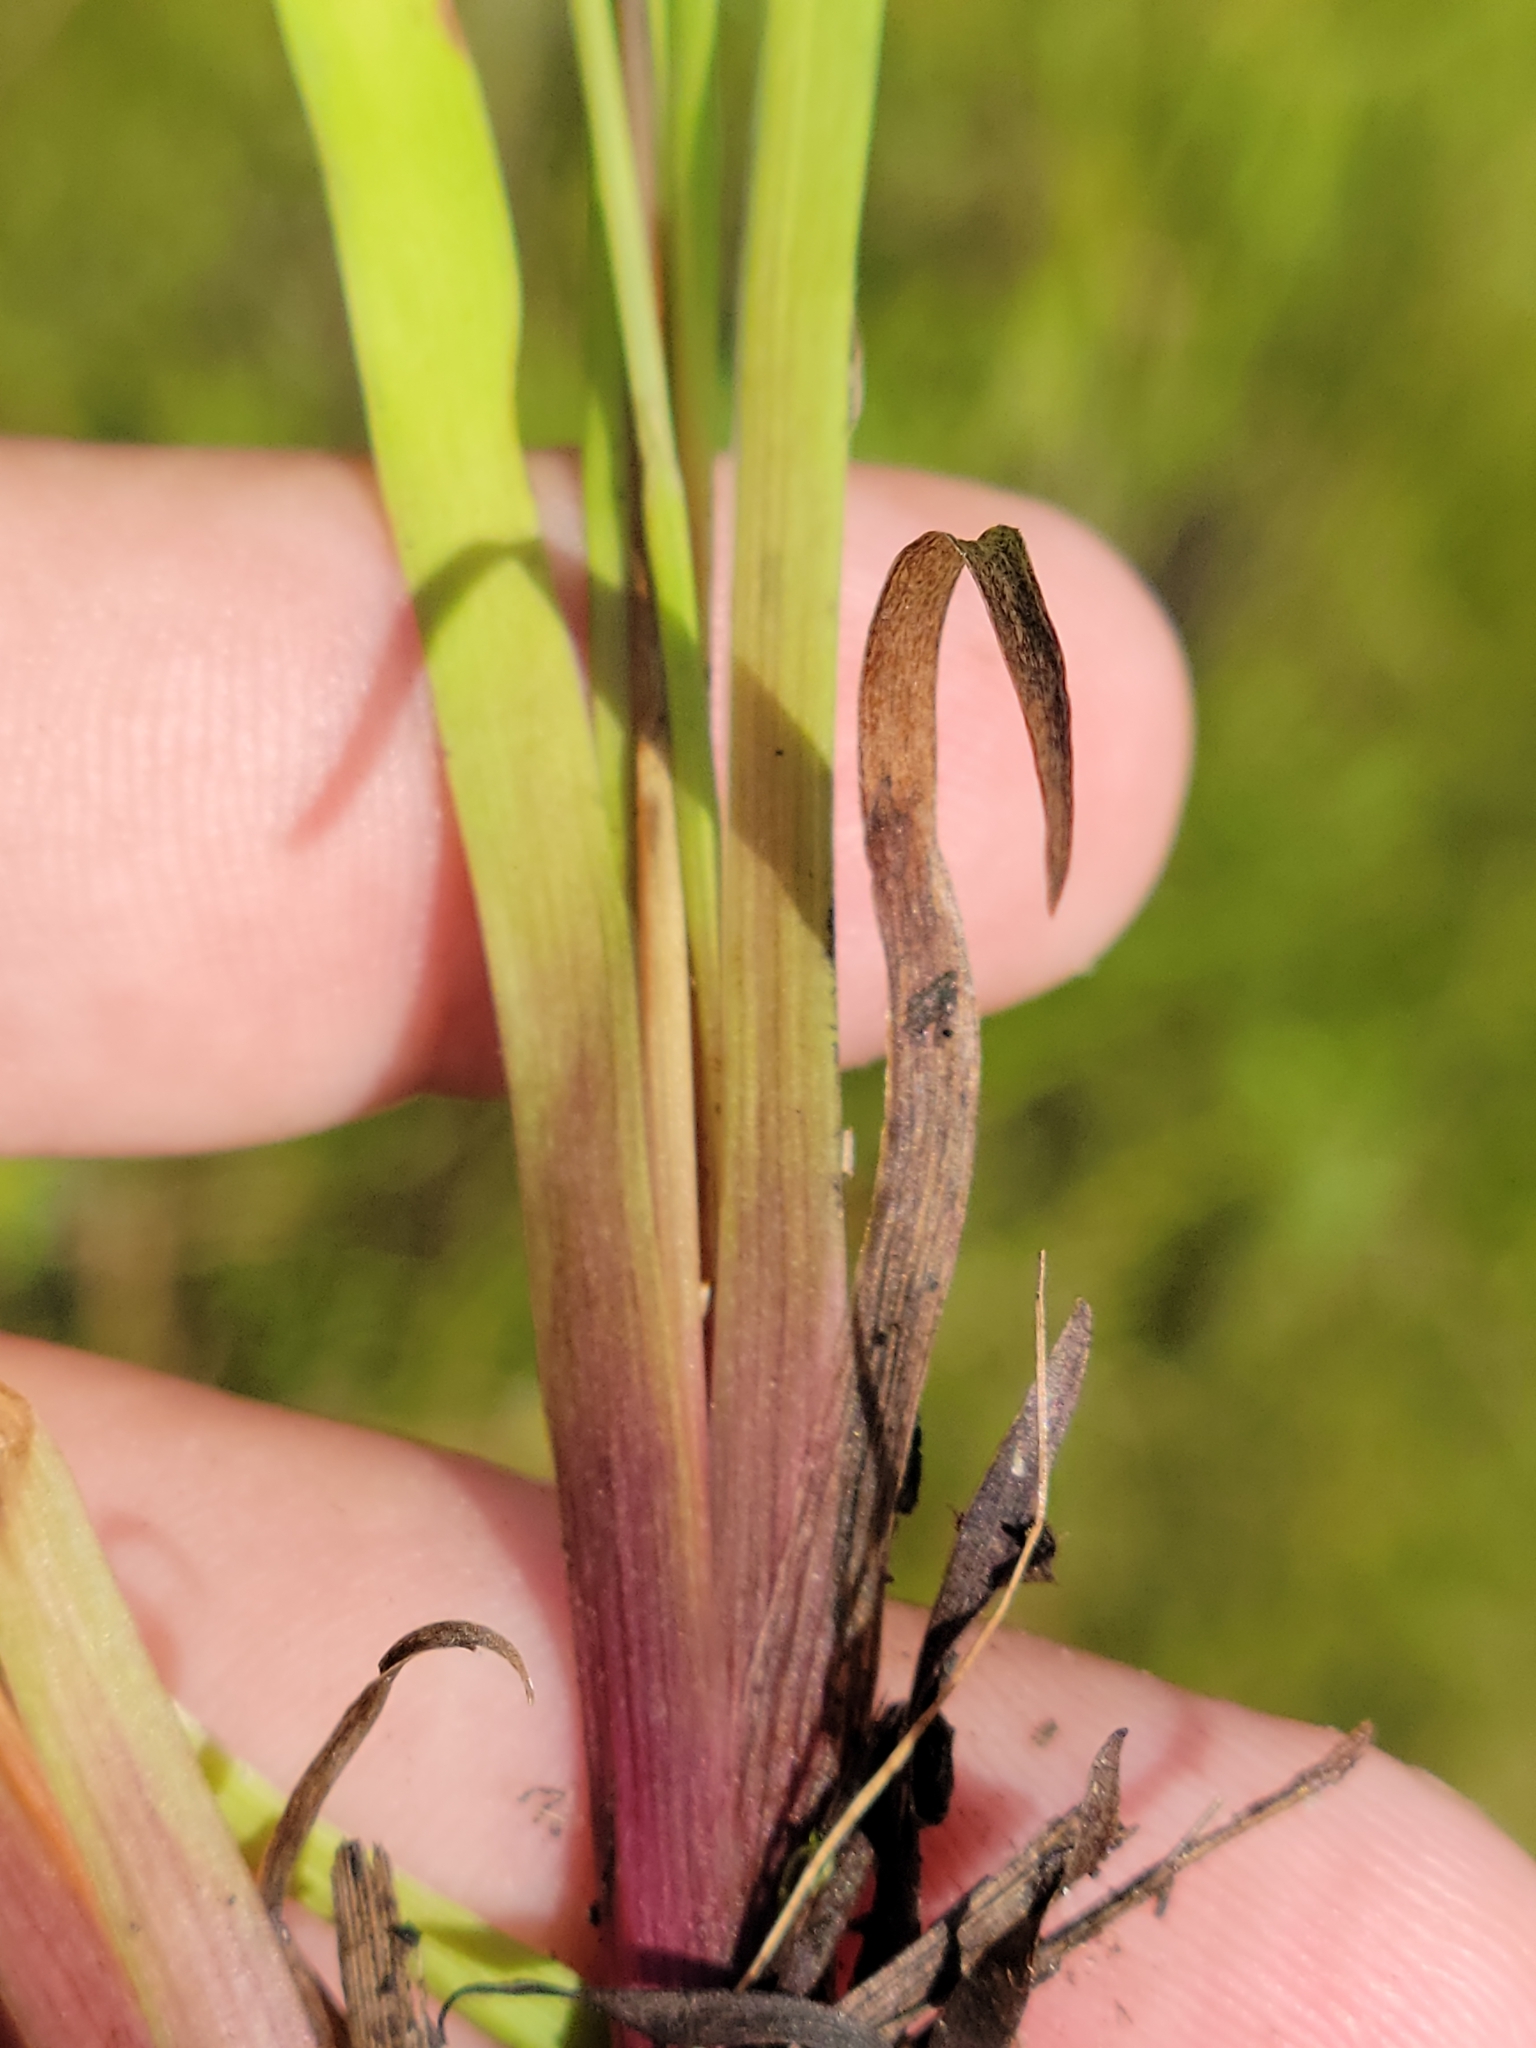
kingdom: Plantae
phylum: Tracheophyta
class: Liliopsida
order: Poales
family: Xyridaceae
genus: Xyris
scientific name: Xyris floridana
